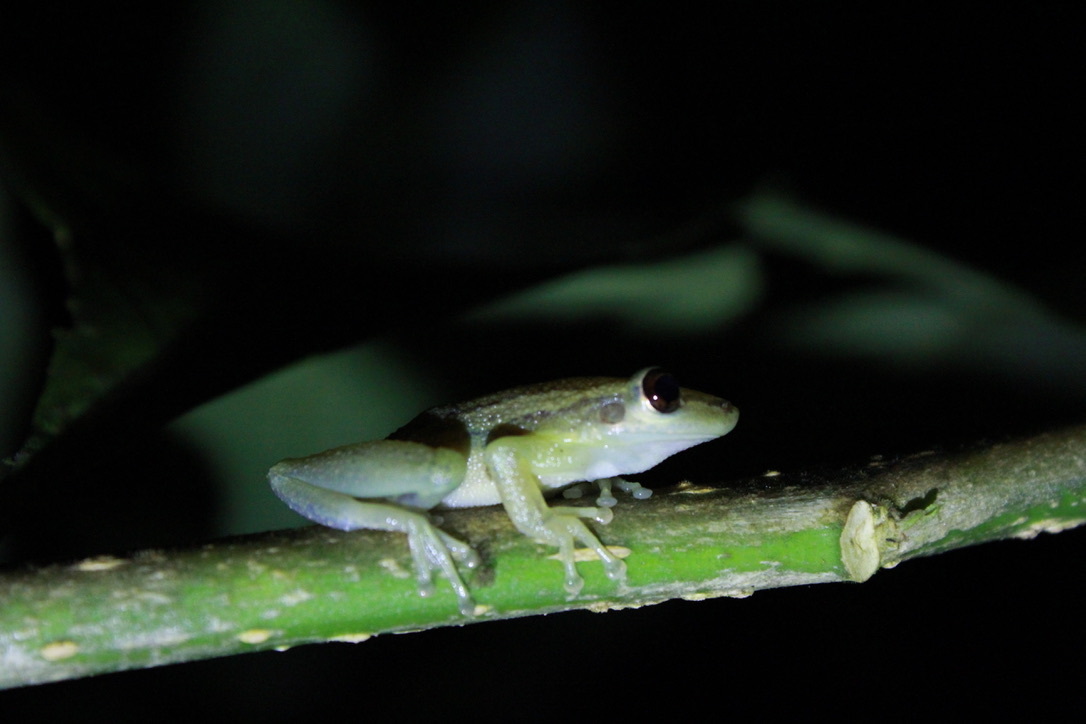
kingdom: Animalia
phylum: Chordata
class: Amphibia
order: Anura
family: Hylidae
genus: Scinax
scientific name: Scinax ruber
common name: Red snouted treefrog
